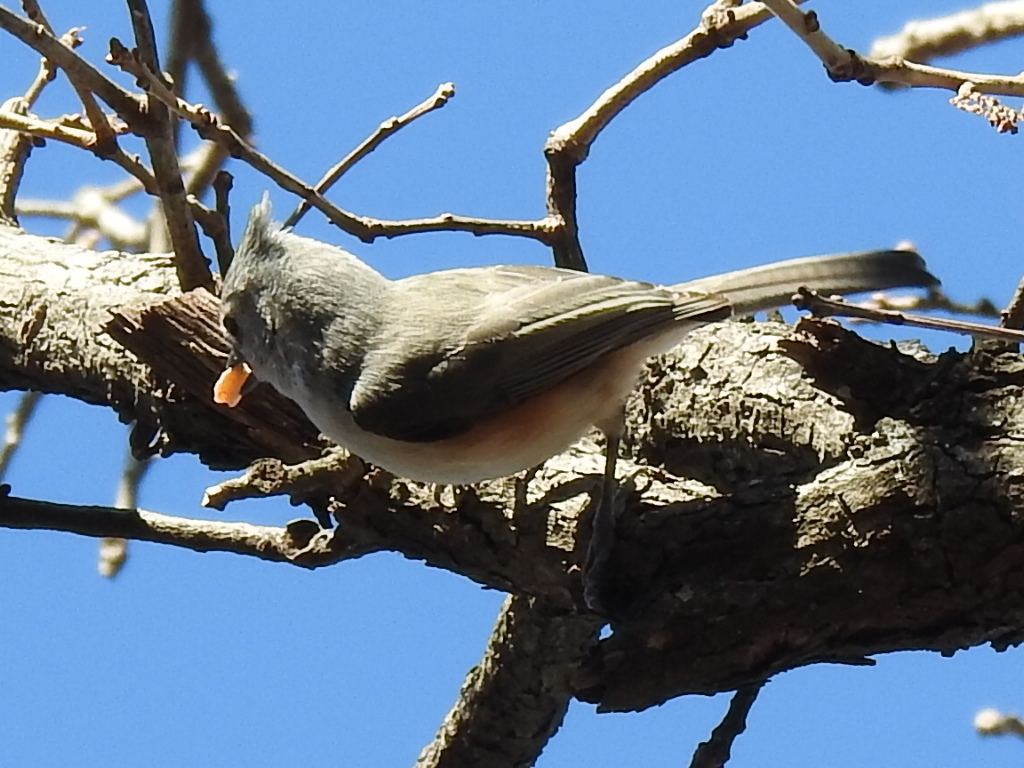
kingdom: Animalia
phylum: Chordata
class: Aves
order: Passeriformes
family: Paridae
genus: Baeolophus
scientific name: Baeolophus bicolor
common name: Tufted titmouse
